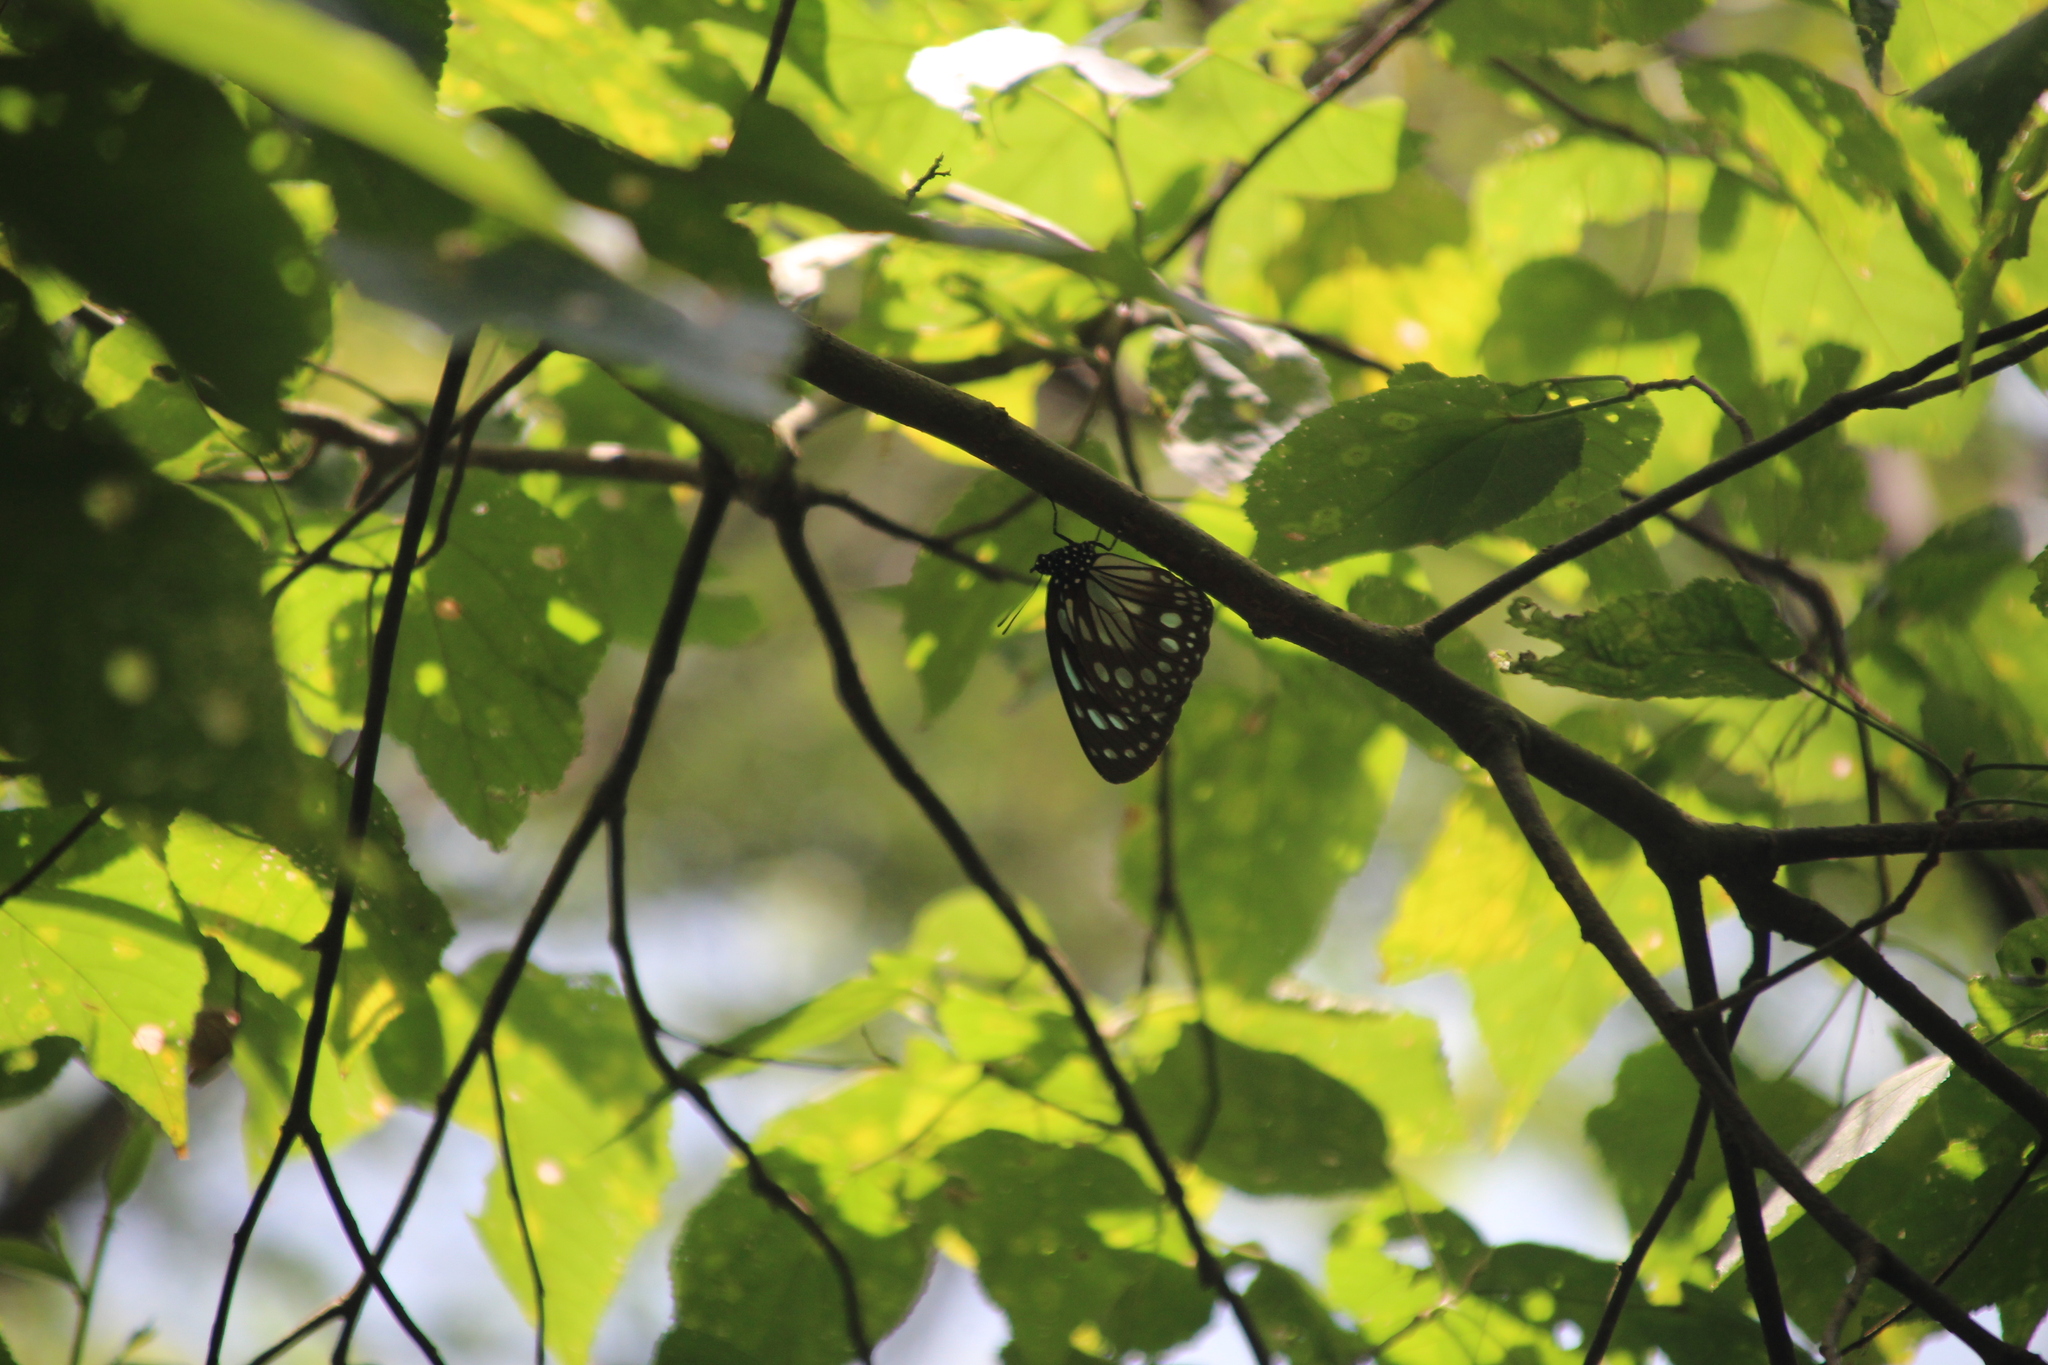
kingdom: Animalia
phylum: Arthropoda
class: Insecta
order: Lepidoptera
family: Nymphalidae
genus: Charaxes
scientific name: Charaxes
